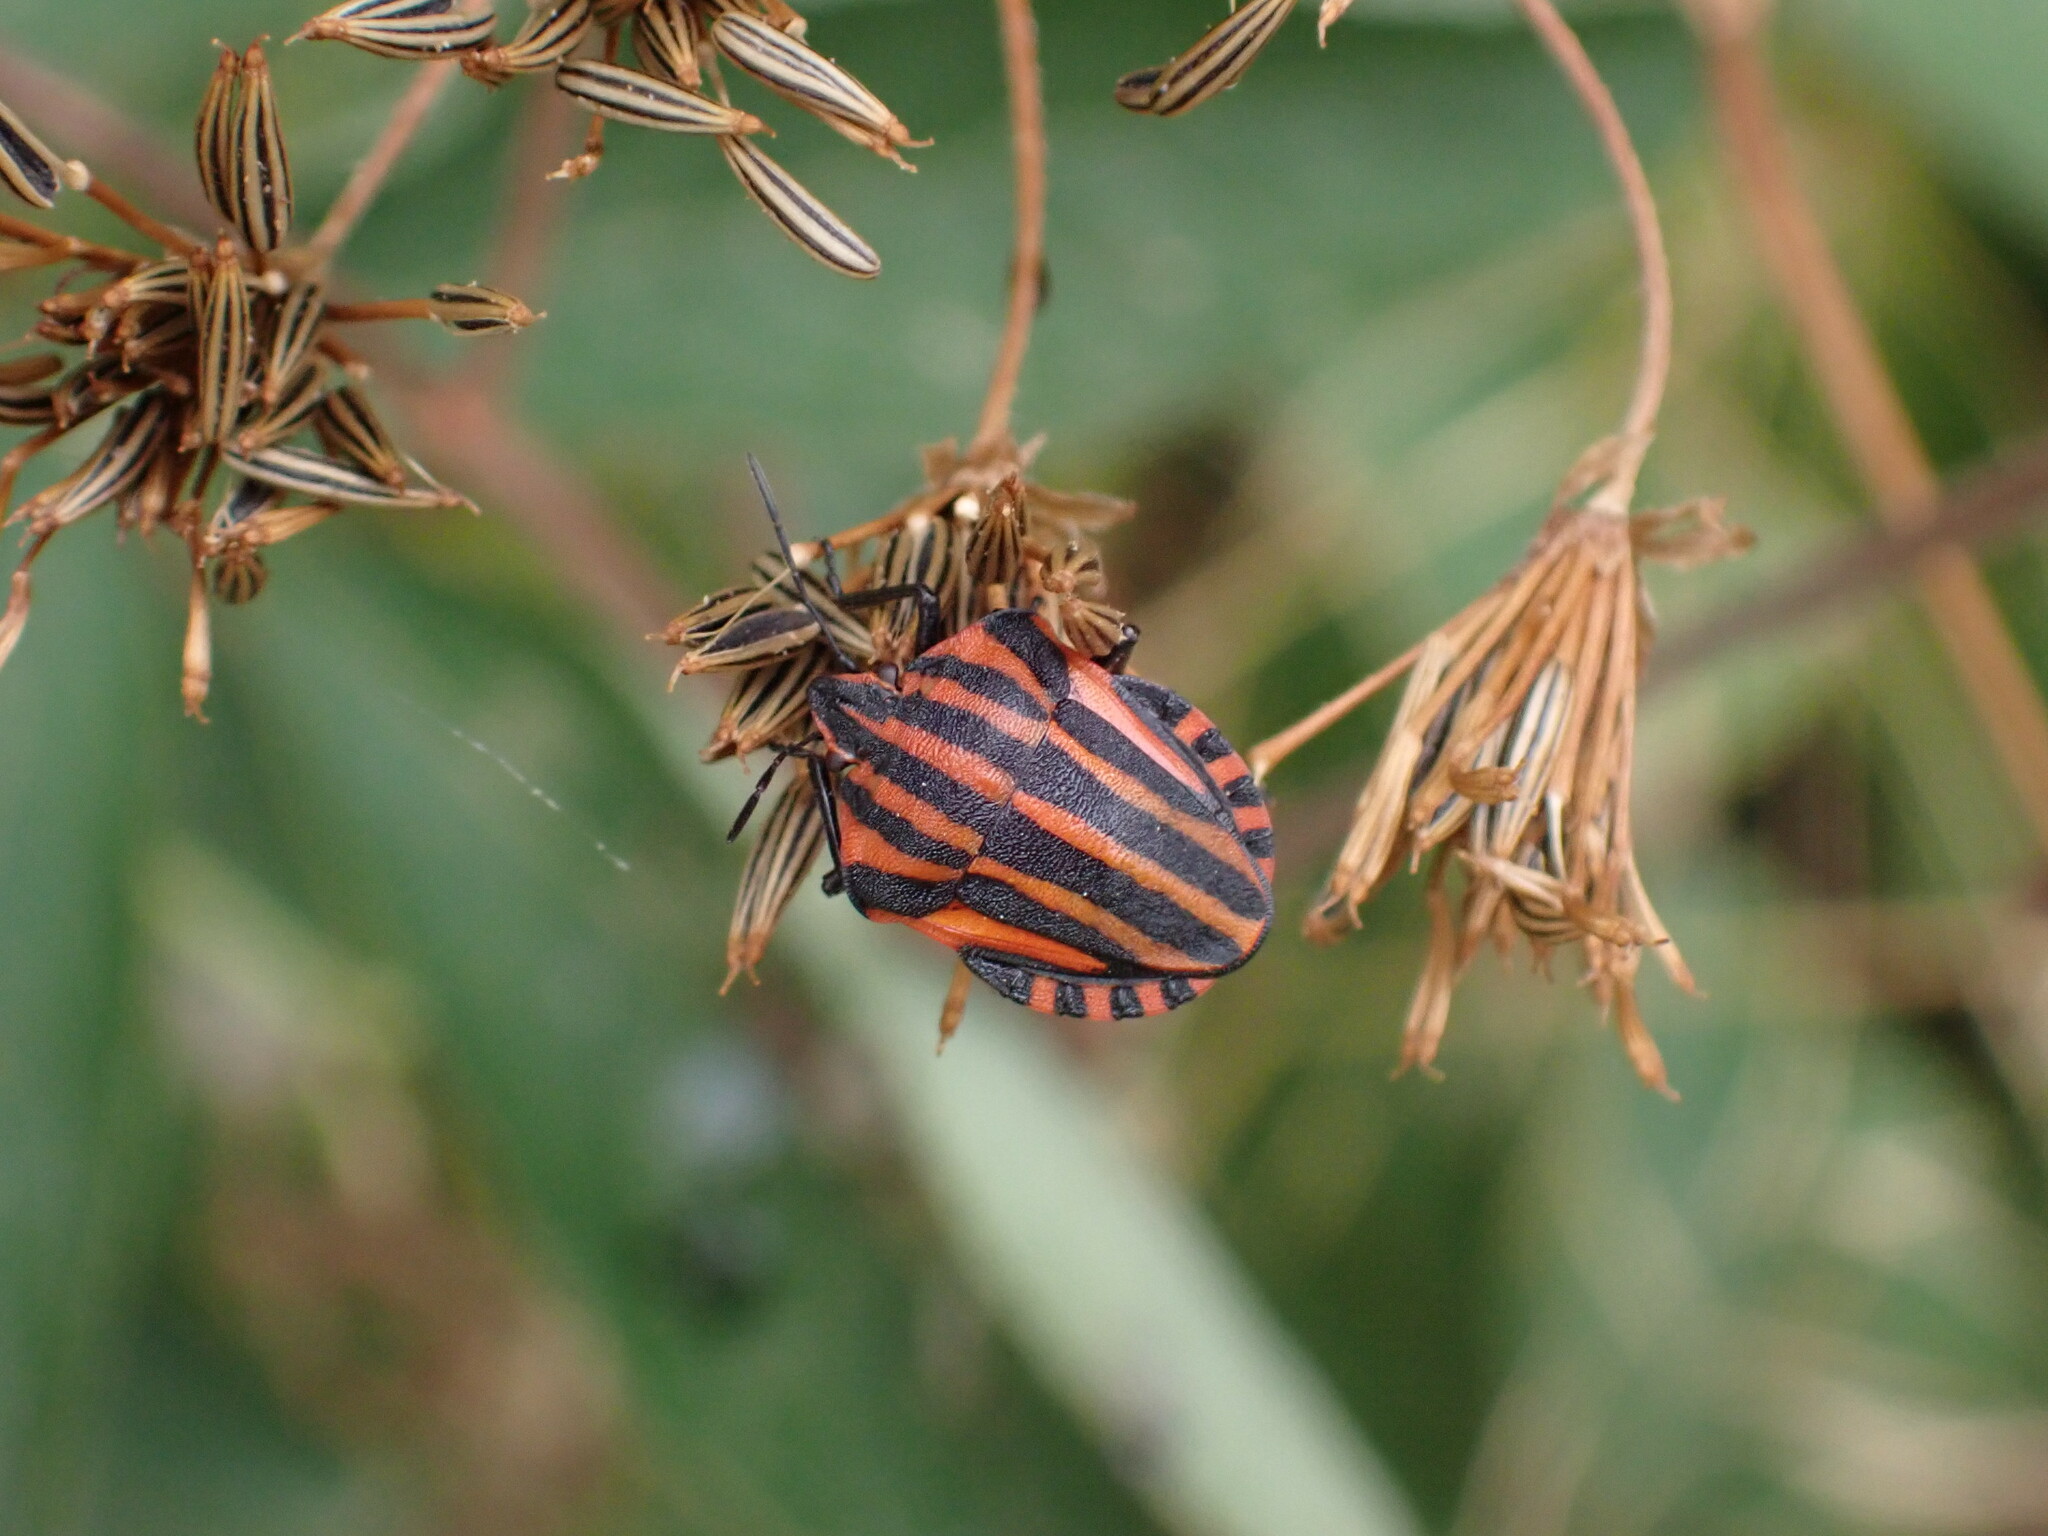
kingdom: Animalia
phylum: Arthropoda
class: Insecta
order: Hemiptera
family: Pentatomidae
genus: Graphosoma
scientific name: Graphosoma italicum
